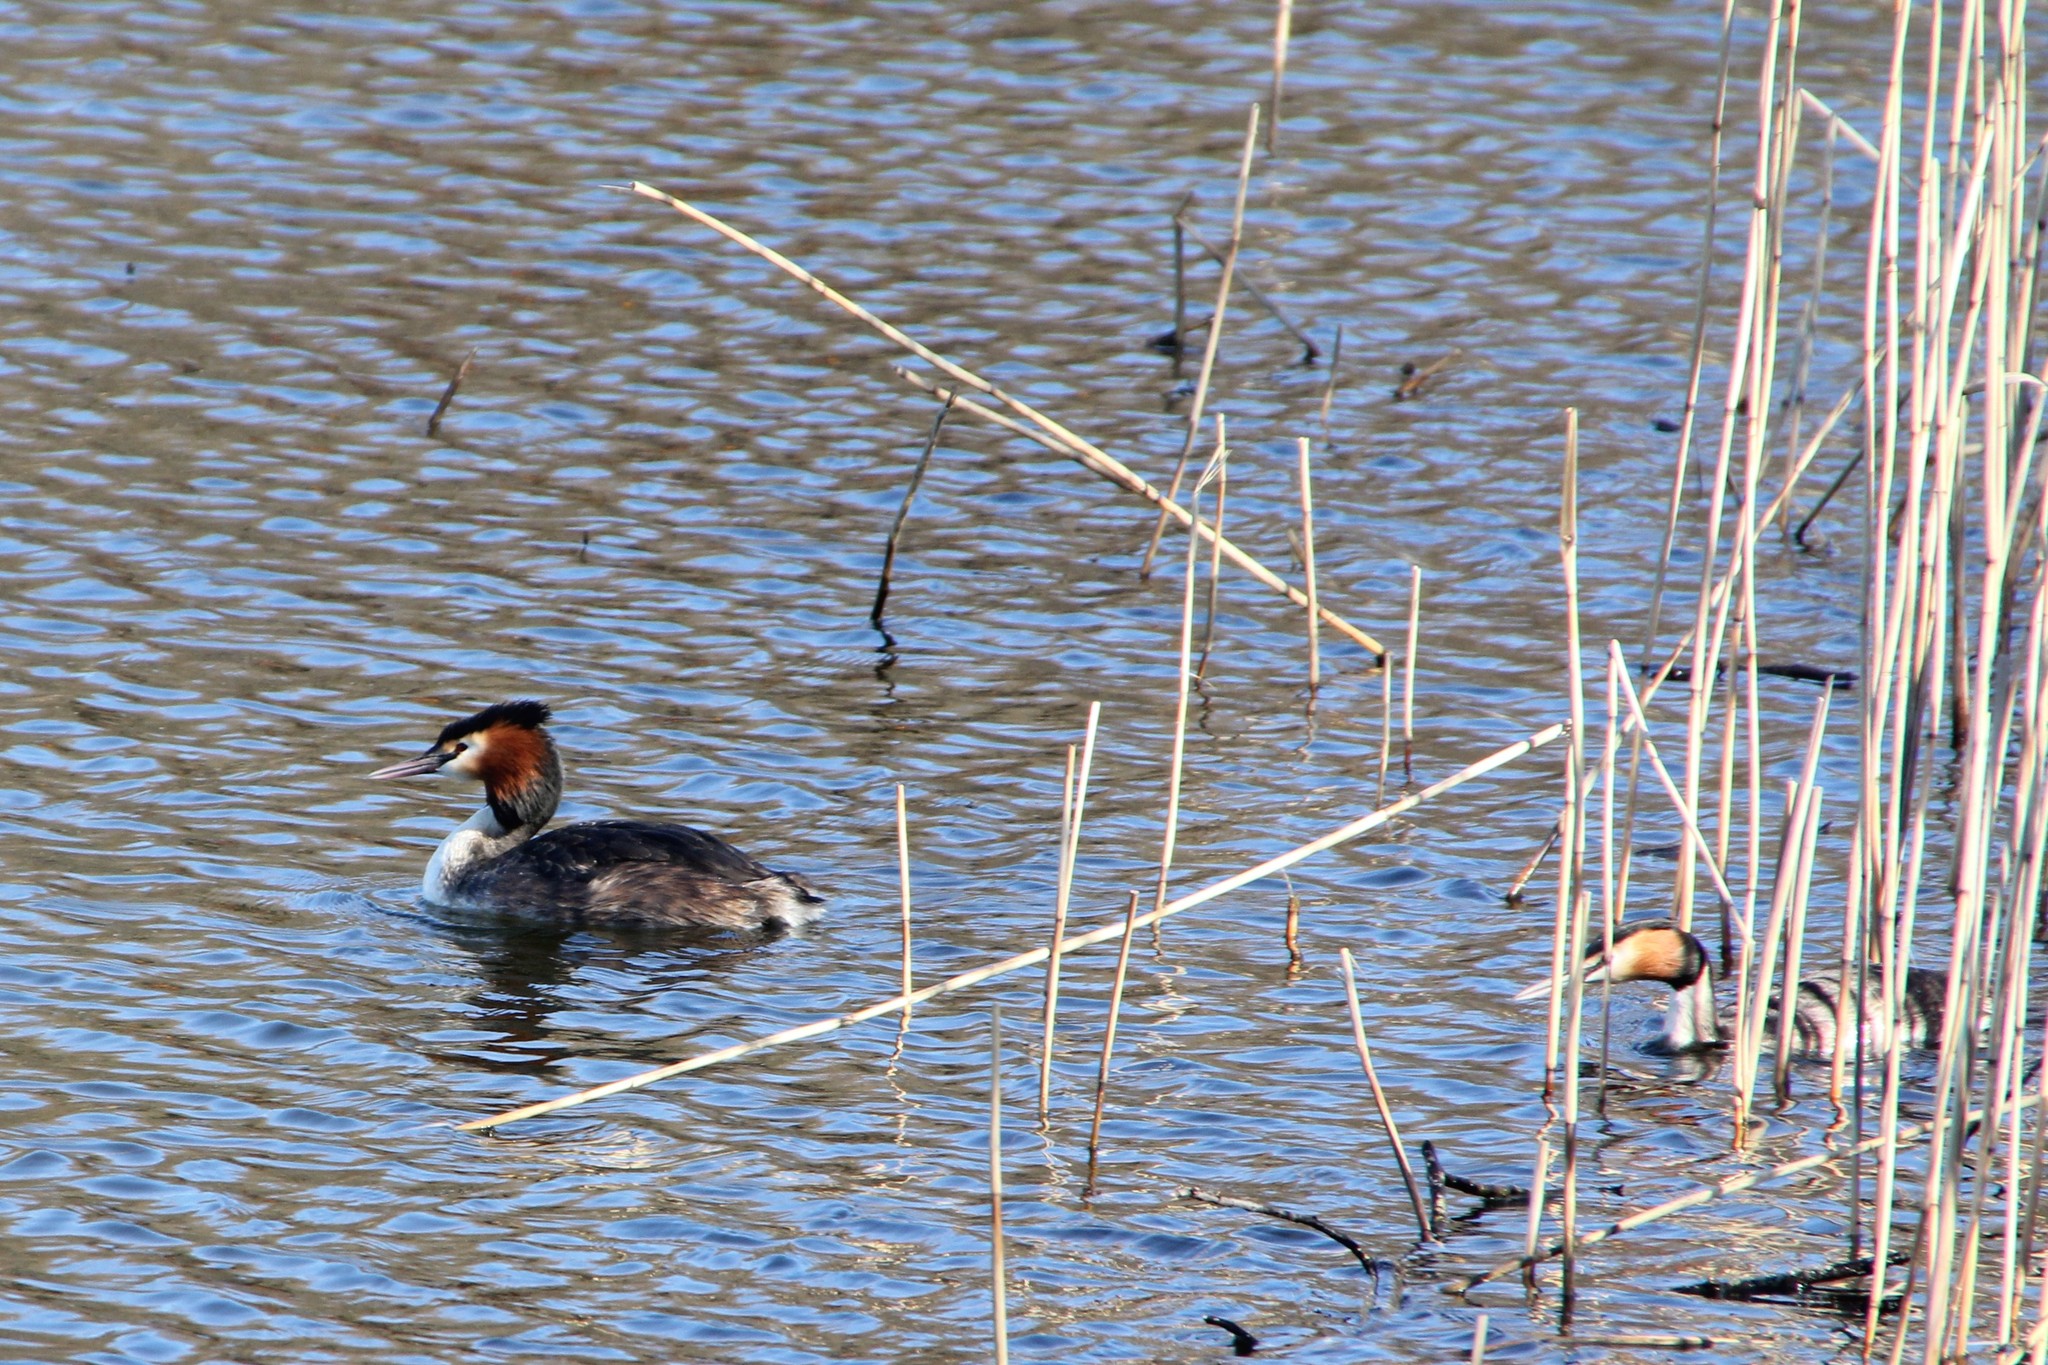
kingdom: Animalia
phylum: Chordata
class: Aves
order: Podicipediformes
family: Podicipedidae
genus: Podiceps
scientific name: Podiceps cristatus
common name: Great crested grebe
